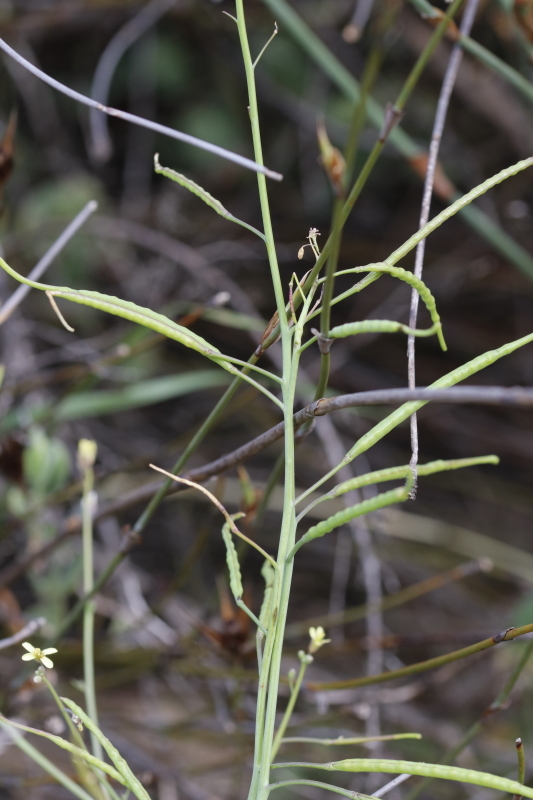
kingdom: Plantae
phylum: Tracheophyta
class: Magnoliopsida
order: Brassicales
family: Brassicaceae
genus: Brassica
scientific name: Brassica tournefortii
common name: Pale cabbage
